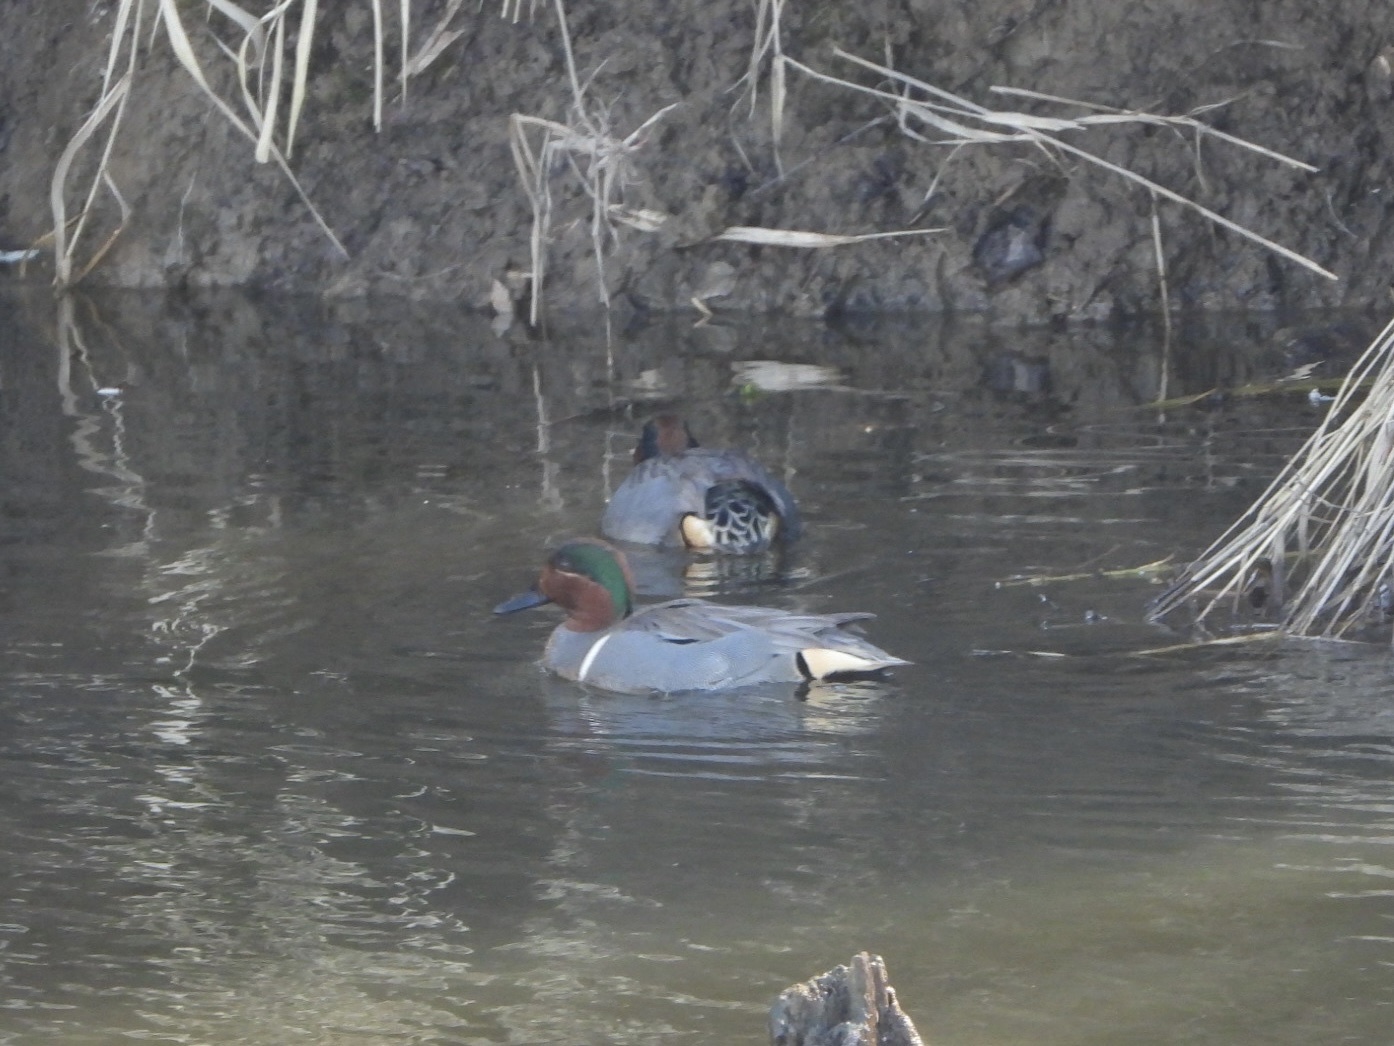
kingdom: Animalia
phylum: Chordata
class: Aves
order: Anseriformes
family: Anatidae
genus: Anas
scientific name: Anas carolinensis
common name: Green-winged teal
